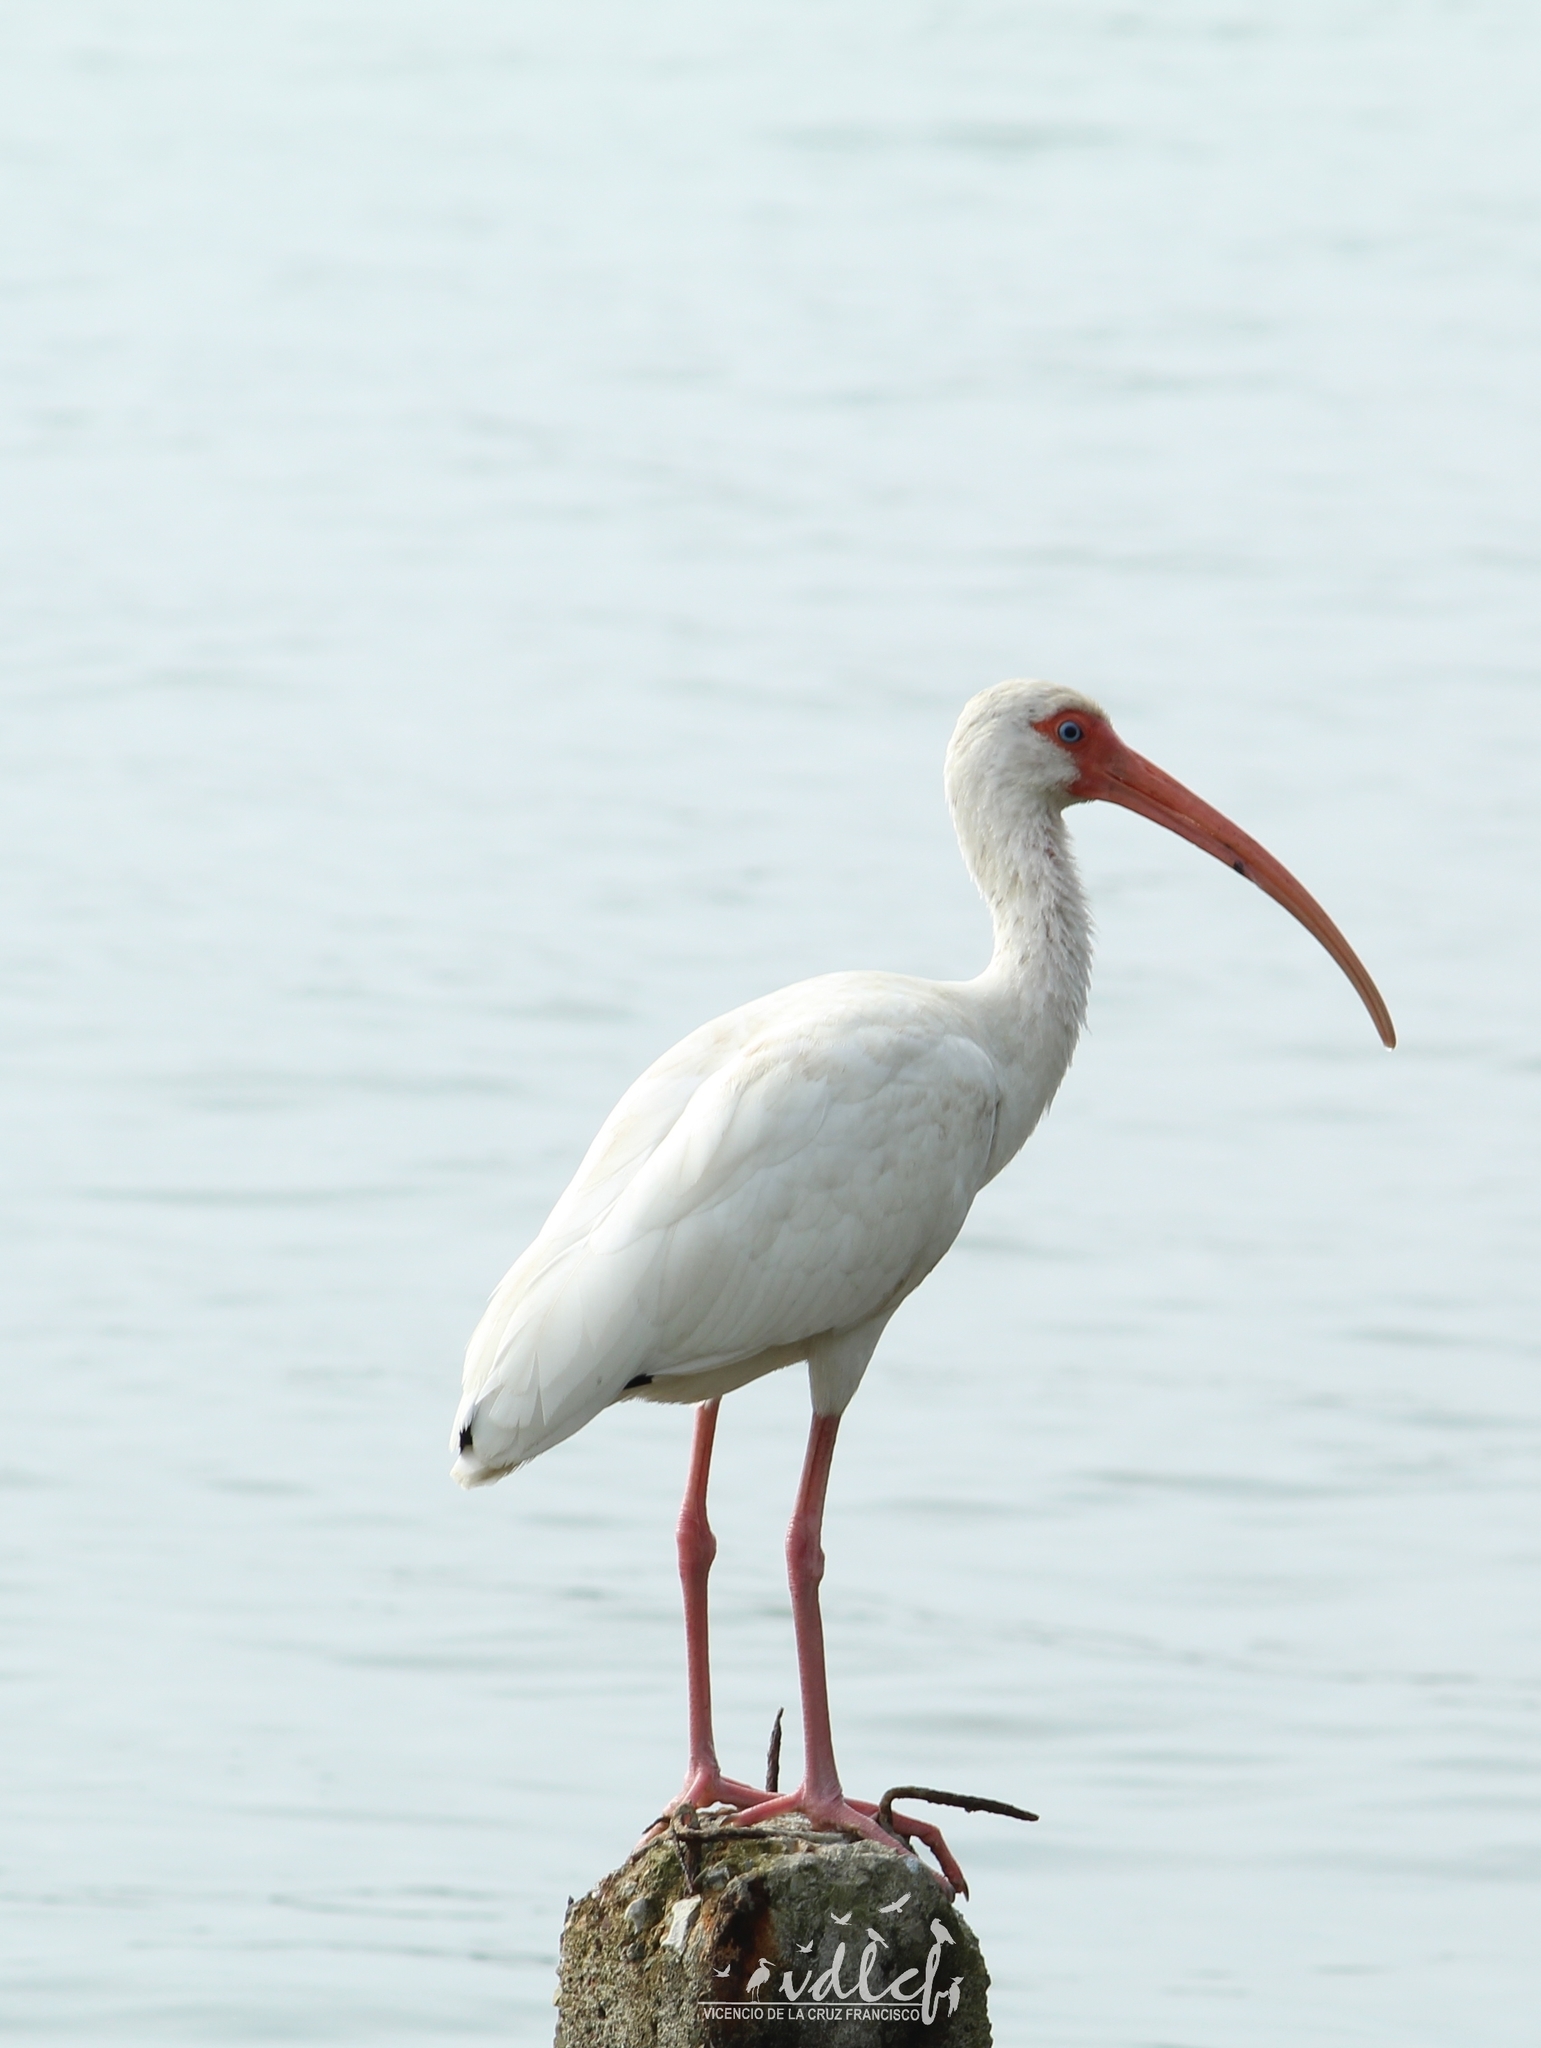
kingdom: Animalia
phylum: Chordata
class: Aves
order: Pelecaniformes
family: Threskiornithidae
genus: Eudocimus
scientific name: Eudocimus albus
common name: White ibis
